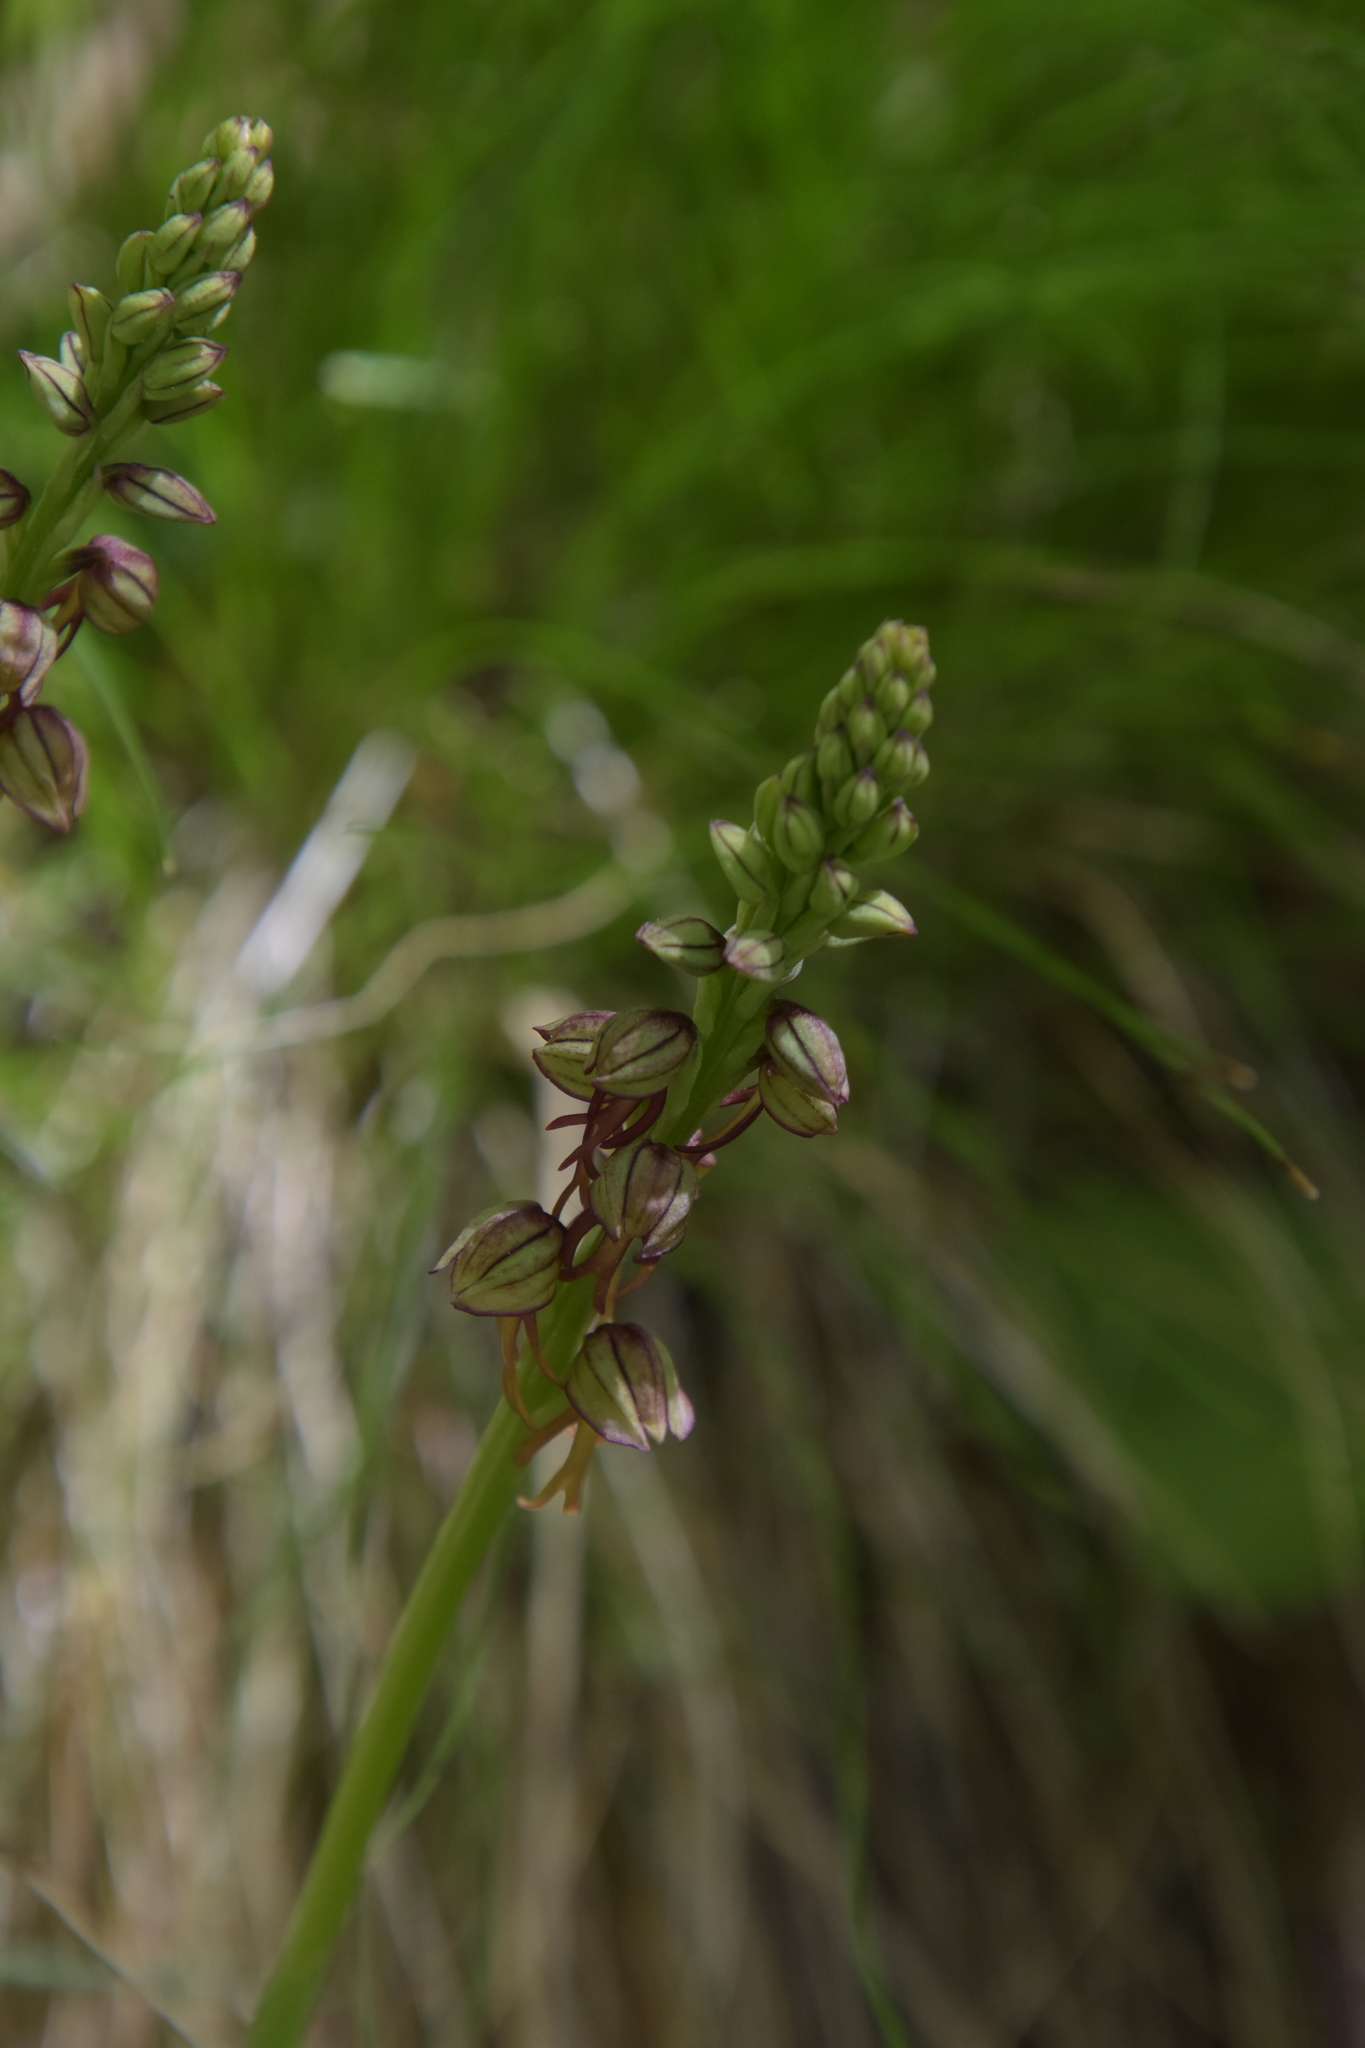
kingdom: Plantae
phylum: Tracheophyta
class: Liliopsida
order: Asparagales
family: Orchidaceae
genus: Orchis
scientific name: Orchis anthropophora
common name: Man orchid
